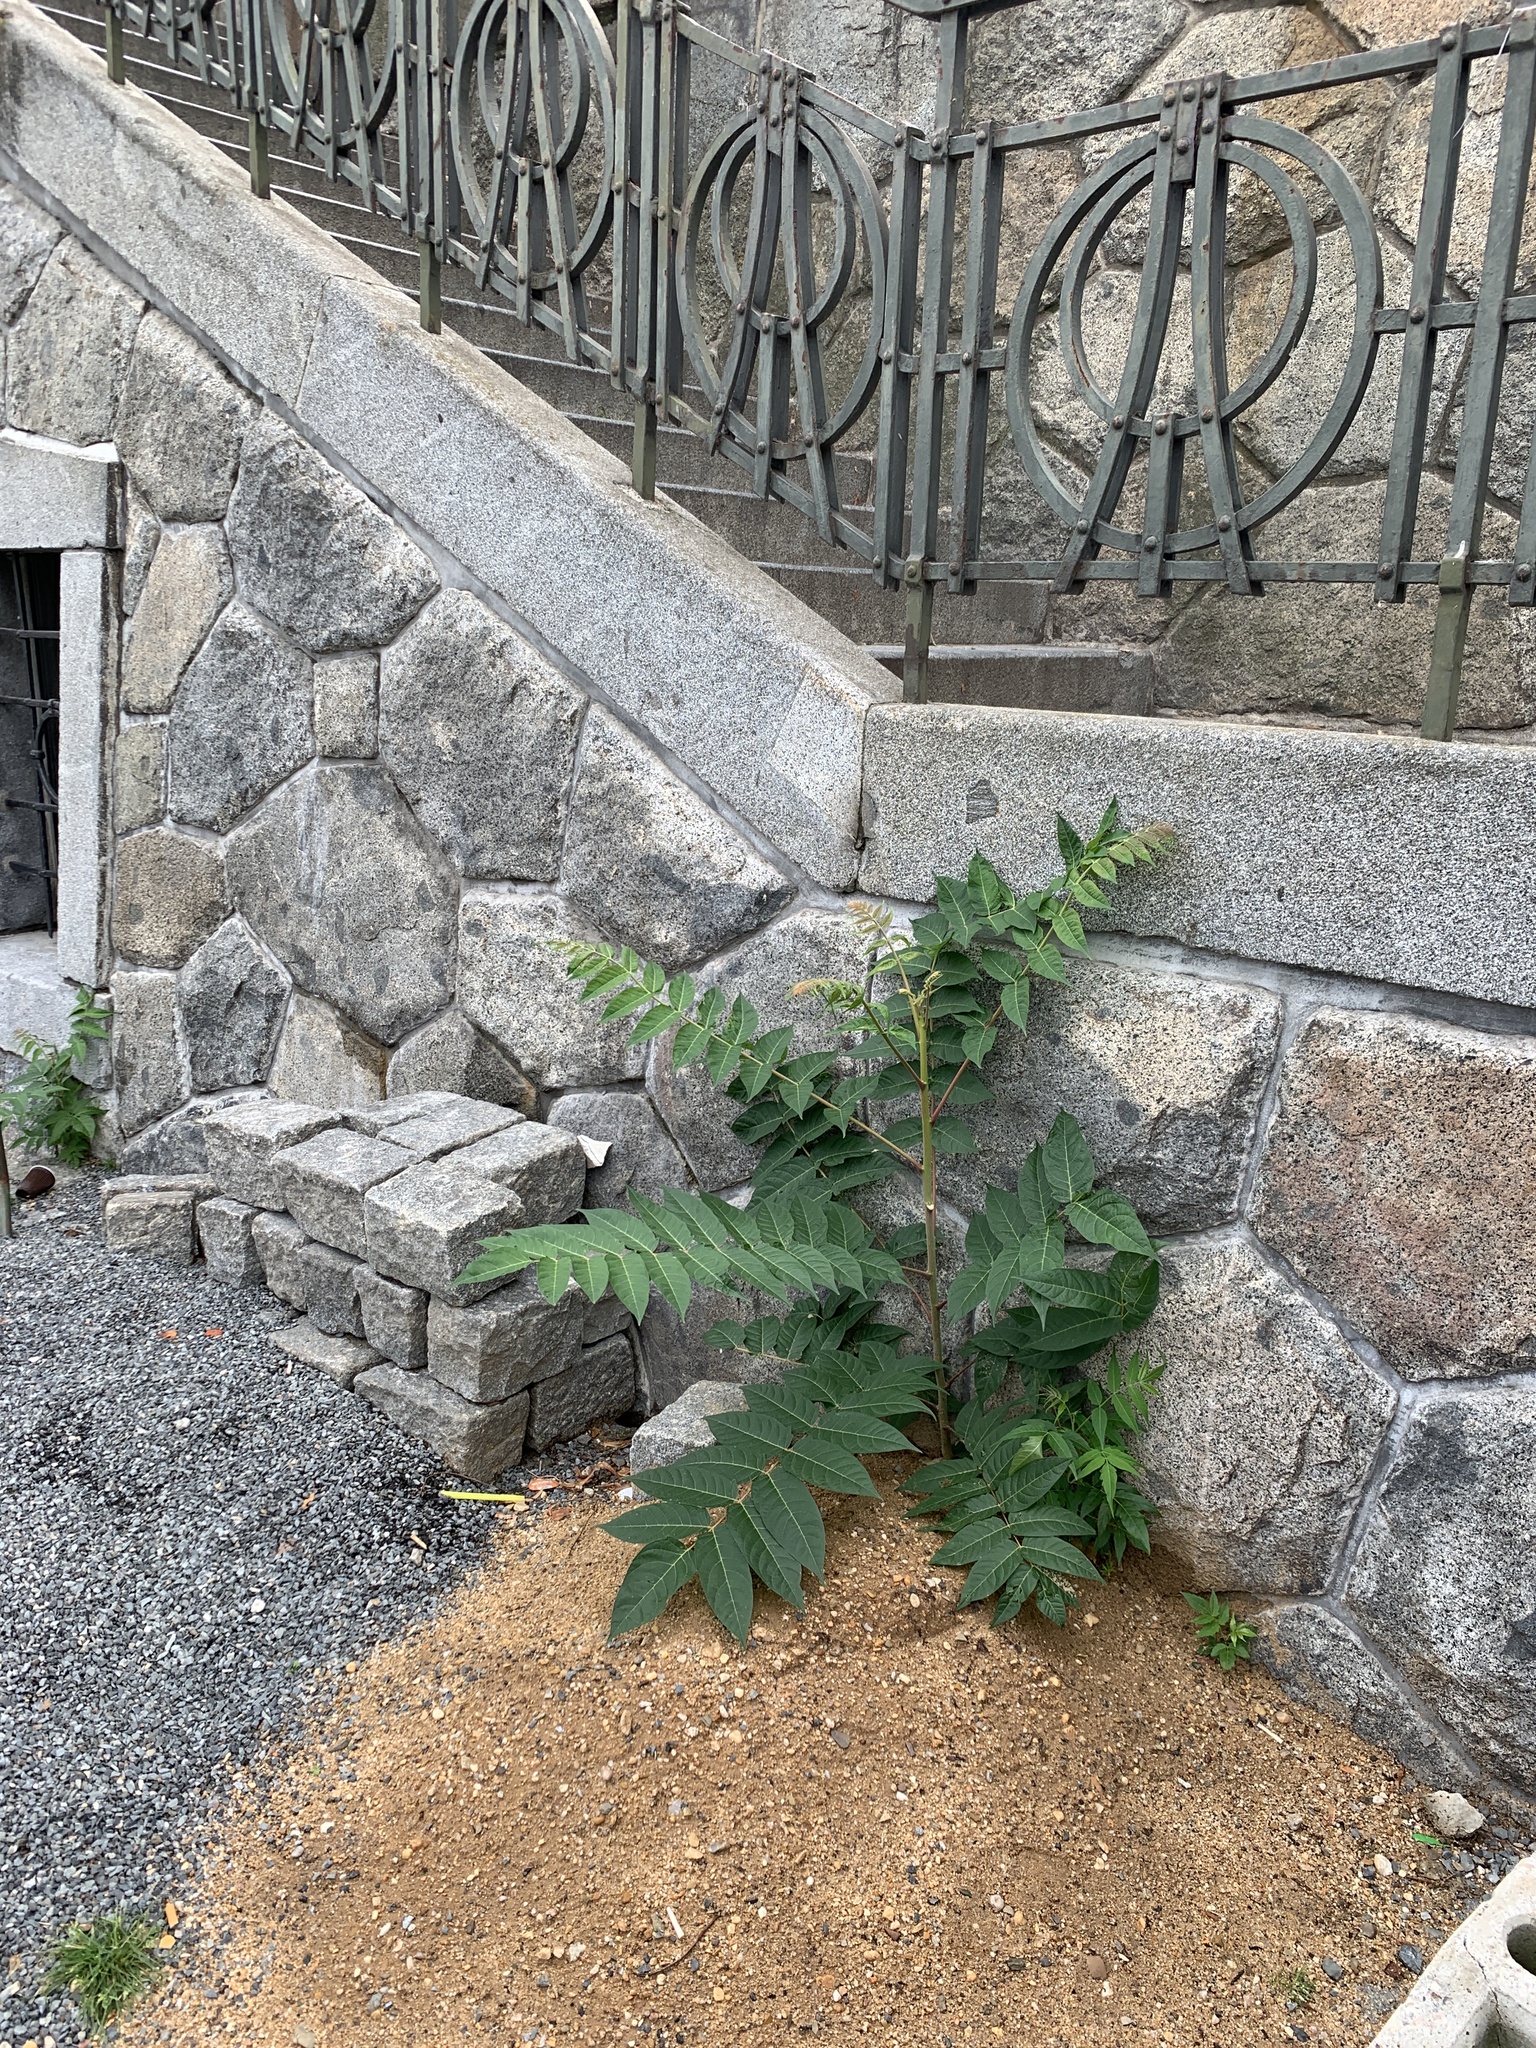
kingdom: Plantae
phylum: Tracheophyta
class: Magnoliopsida
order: Sapindales
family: Simaroubaceae
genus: Ailanthus
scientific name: Ailanthus altissima
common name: Tree-of-heaven
